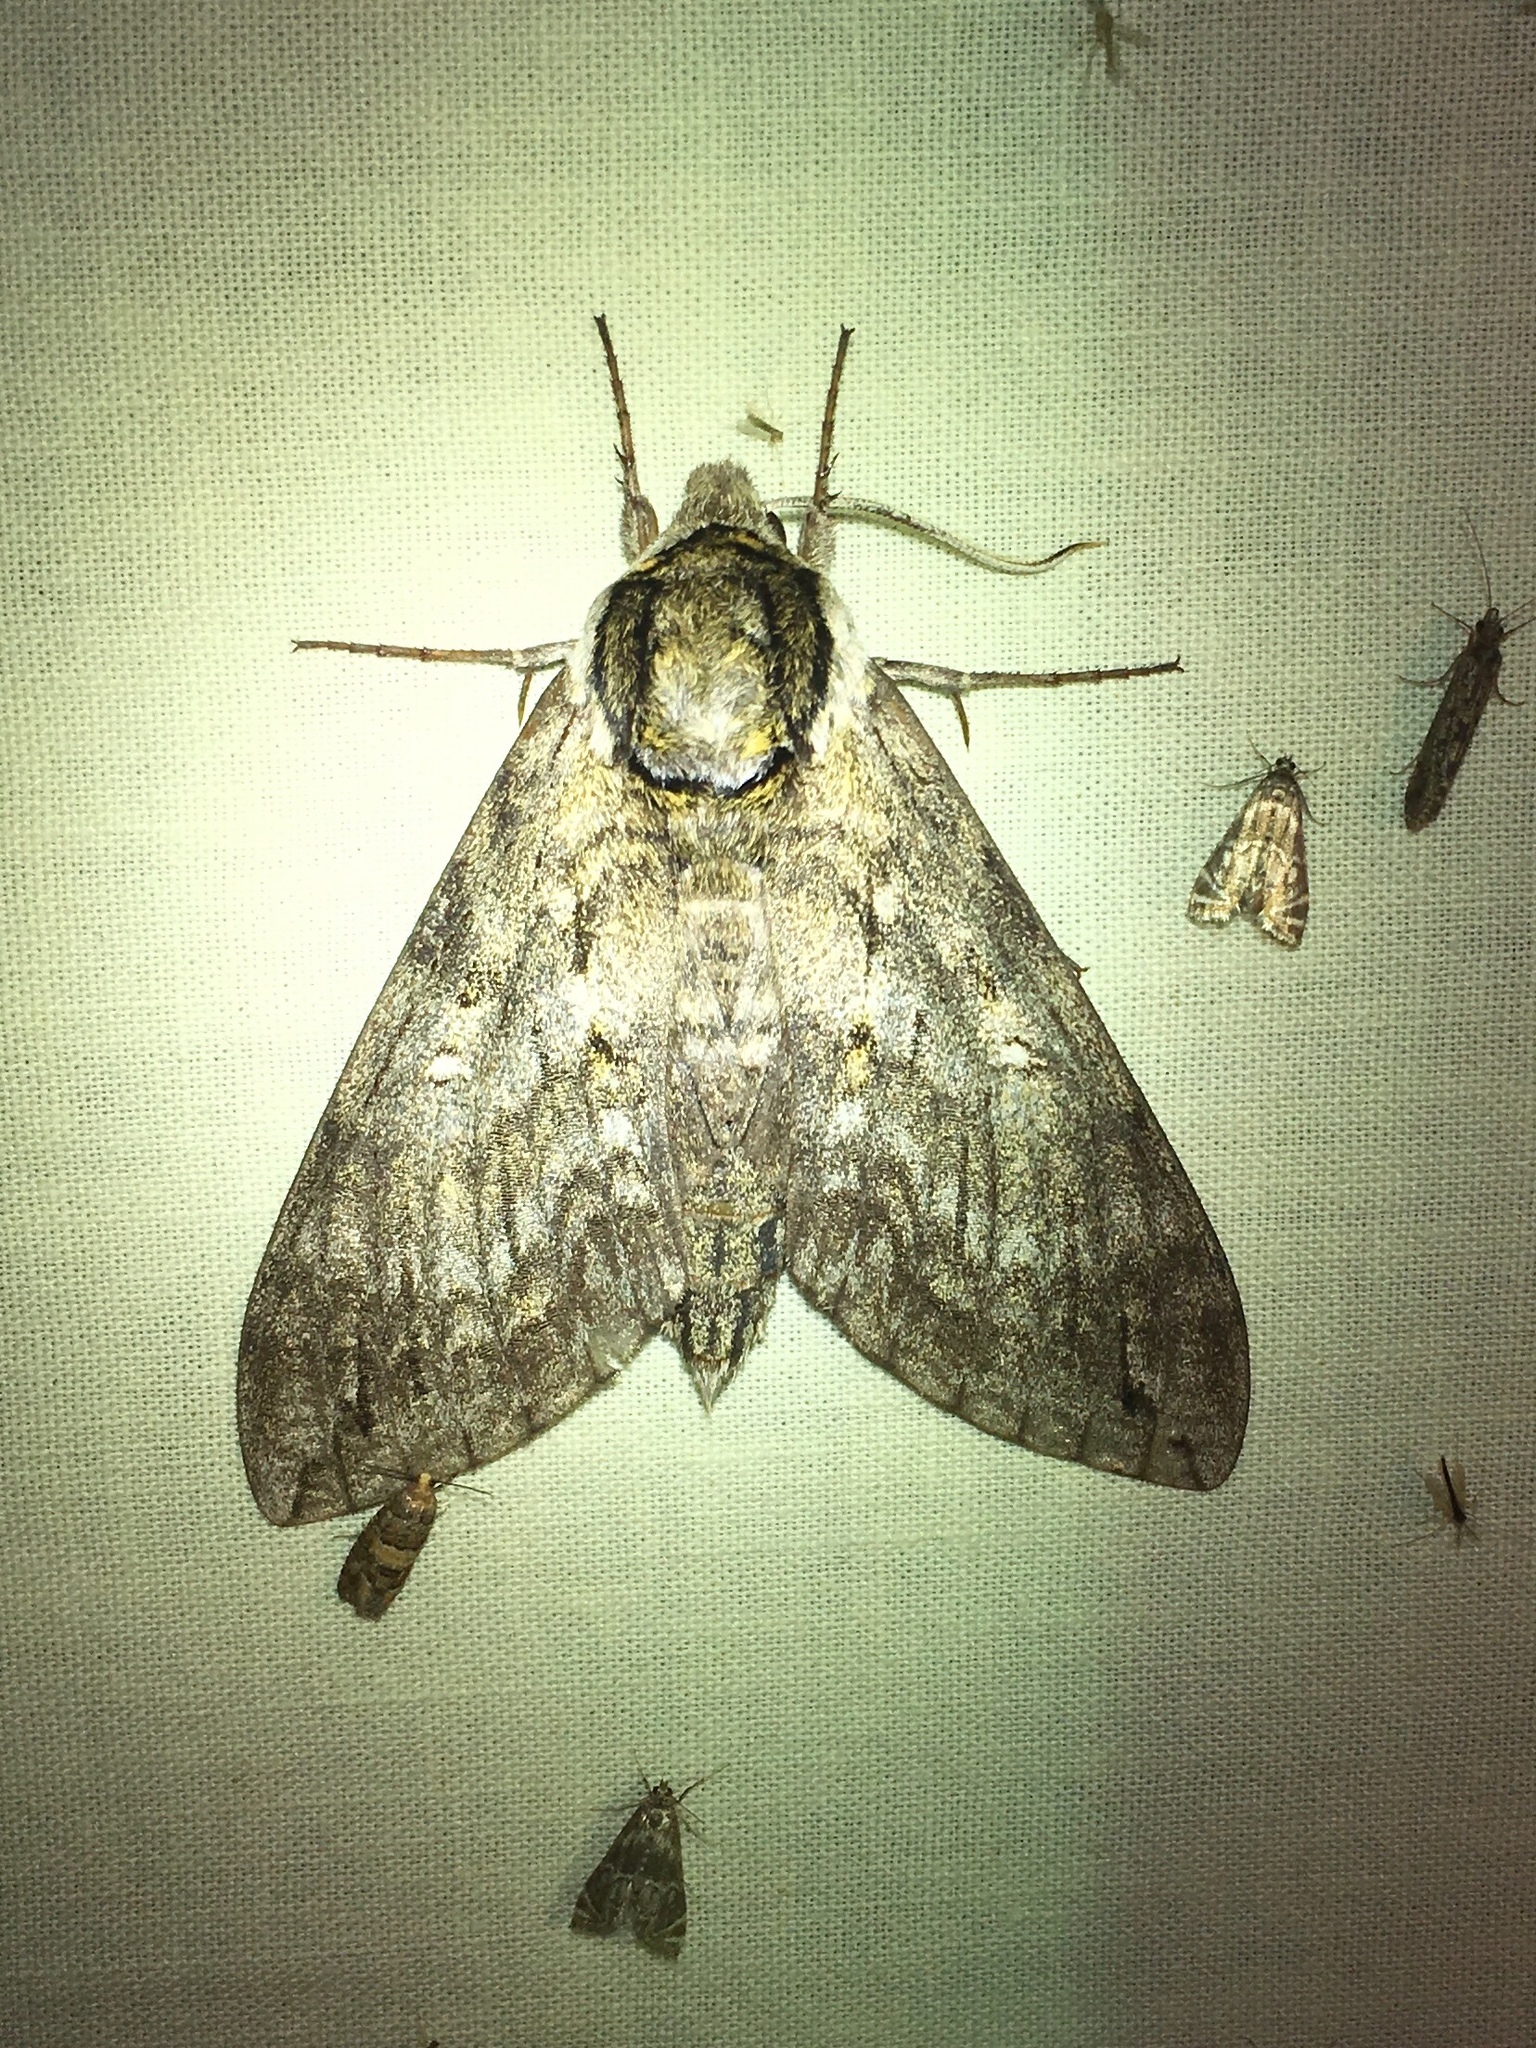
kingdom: Animalia
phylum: Arthropoda
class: Insecta
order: Lepidoptera
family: Sphingidae
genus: Ceratomia
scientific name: Ceratomia undulosa
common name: Waved sphinx
